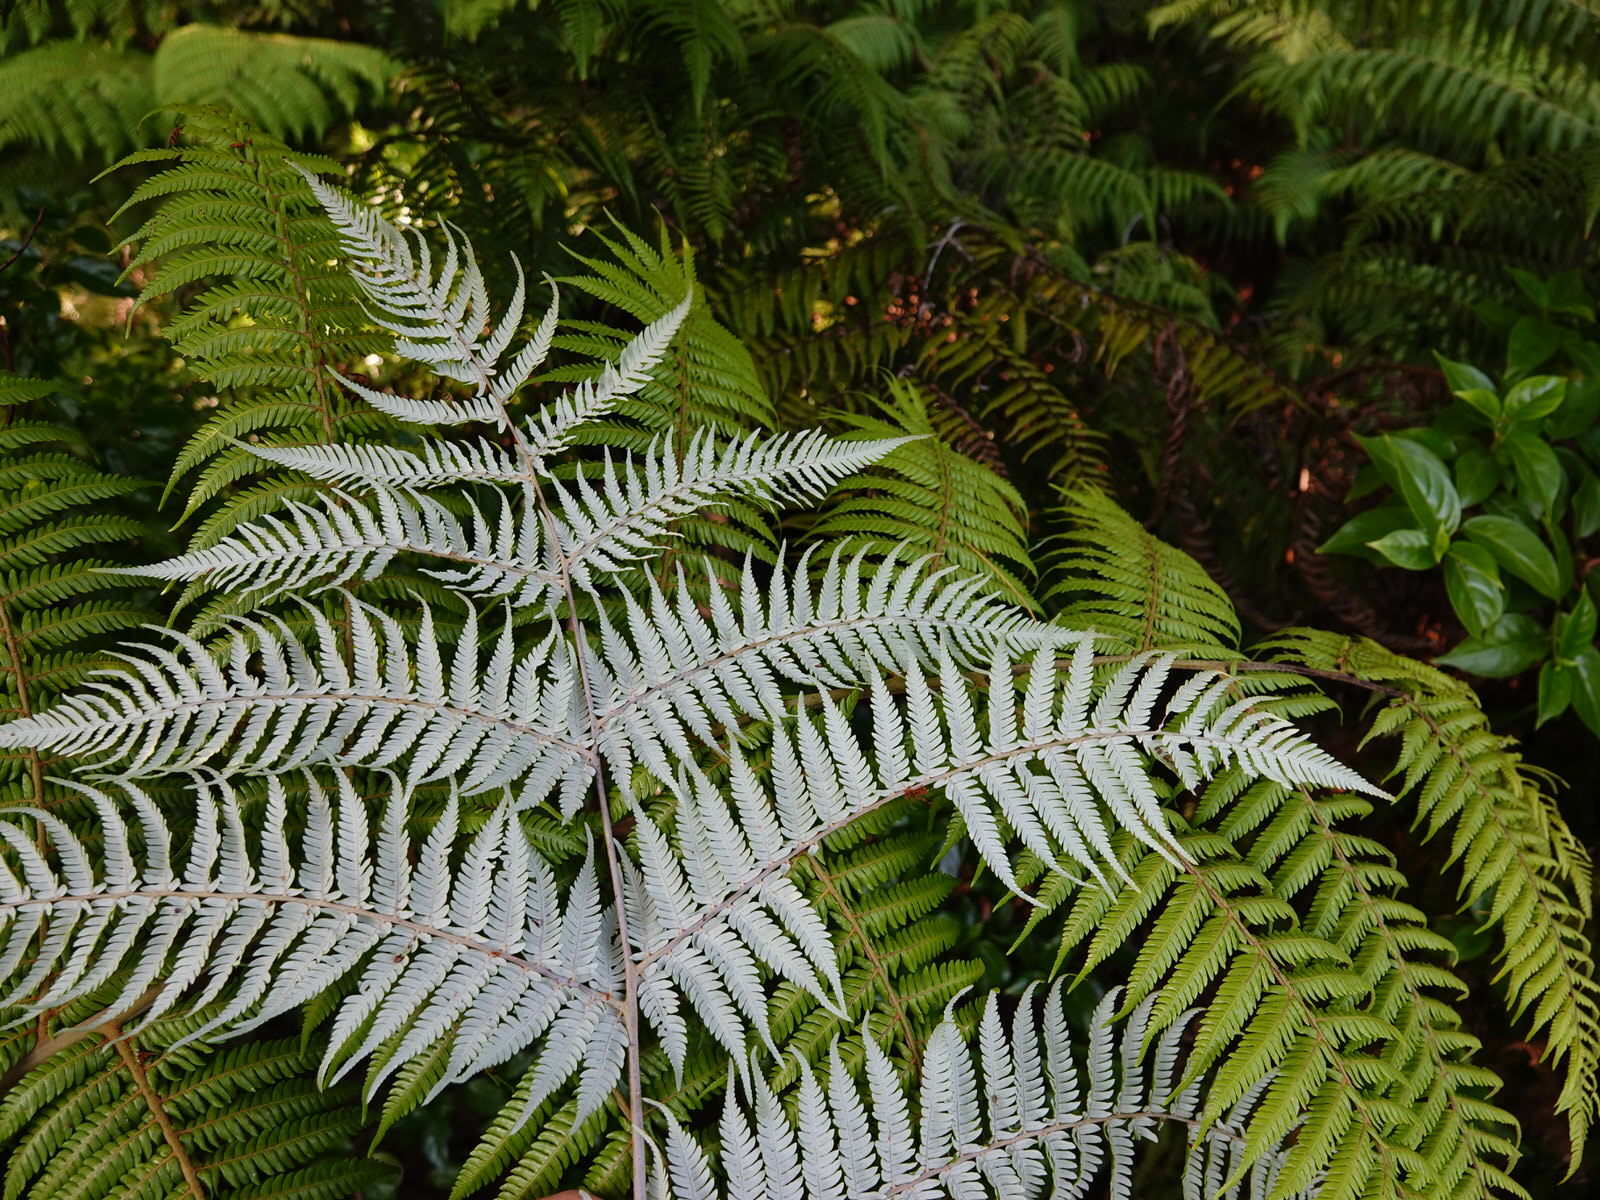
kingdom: Plantae
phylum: Tracheophyta
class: Polypodiopsida
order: Cyatheales
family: Cyatheaceae
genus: Alsophila
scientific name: Alsophila dealbata
